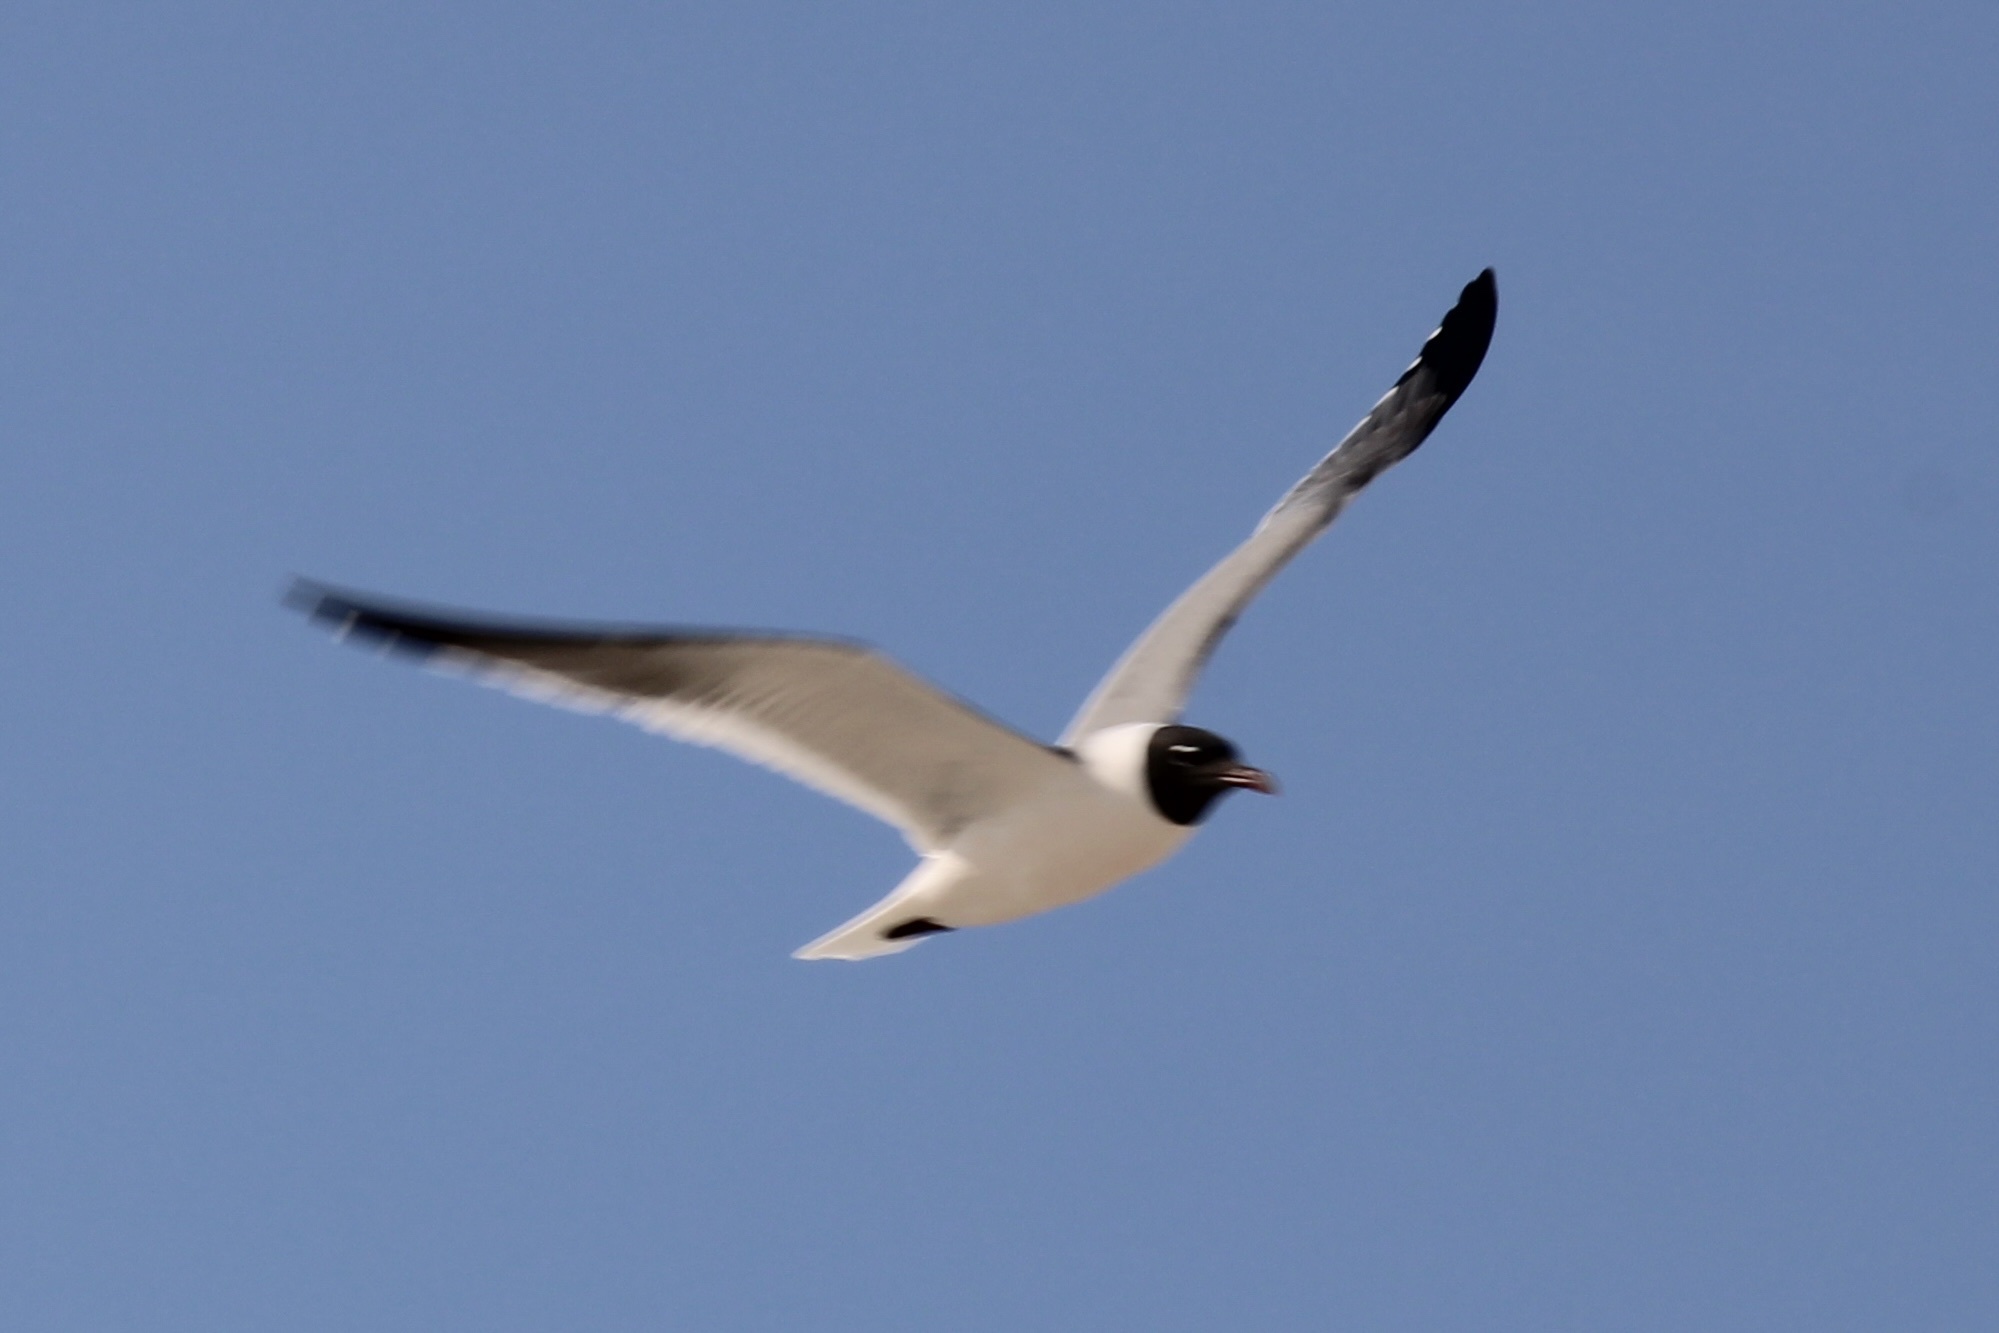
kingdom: Animalia
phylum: Chordata
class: Aves
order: Charadriiformes
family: Laridae
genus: Leucophaeus
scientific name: Leucophaeus atricilla
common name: Laughing gull
